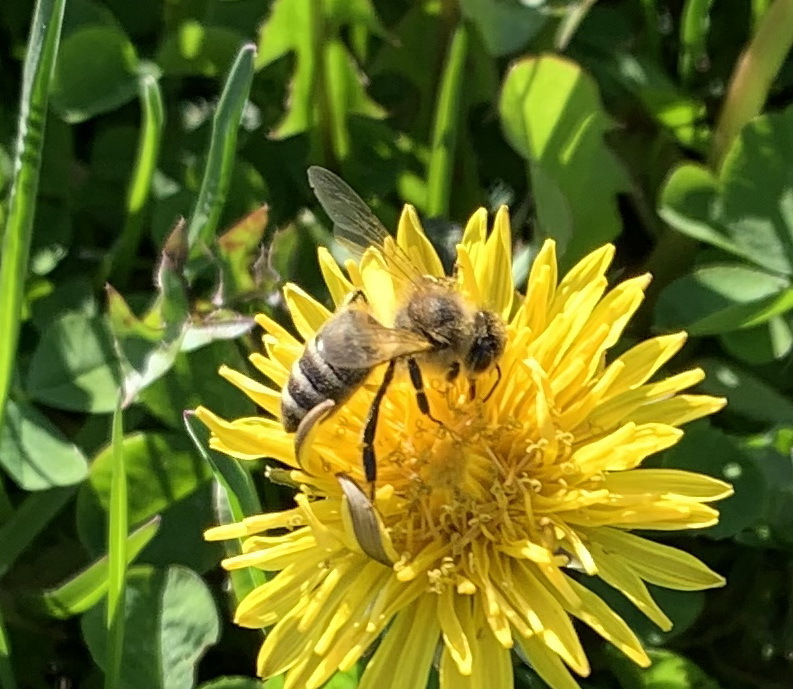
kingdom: Animalia
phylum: Arthropoda
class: Insecta
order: Hymenoptera
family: Apidae
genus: Apis
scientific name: Apis mellifera
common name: Honey bee
